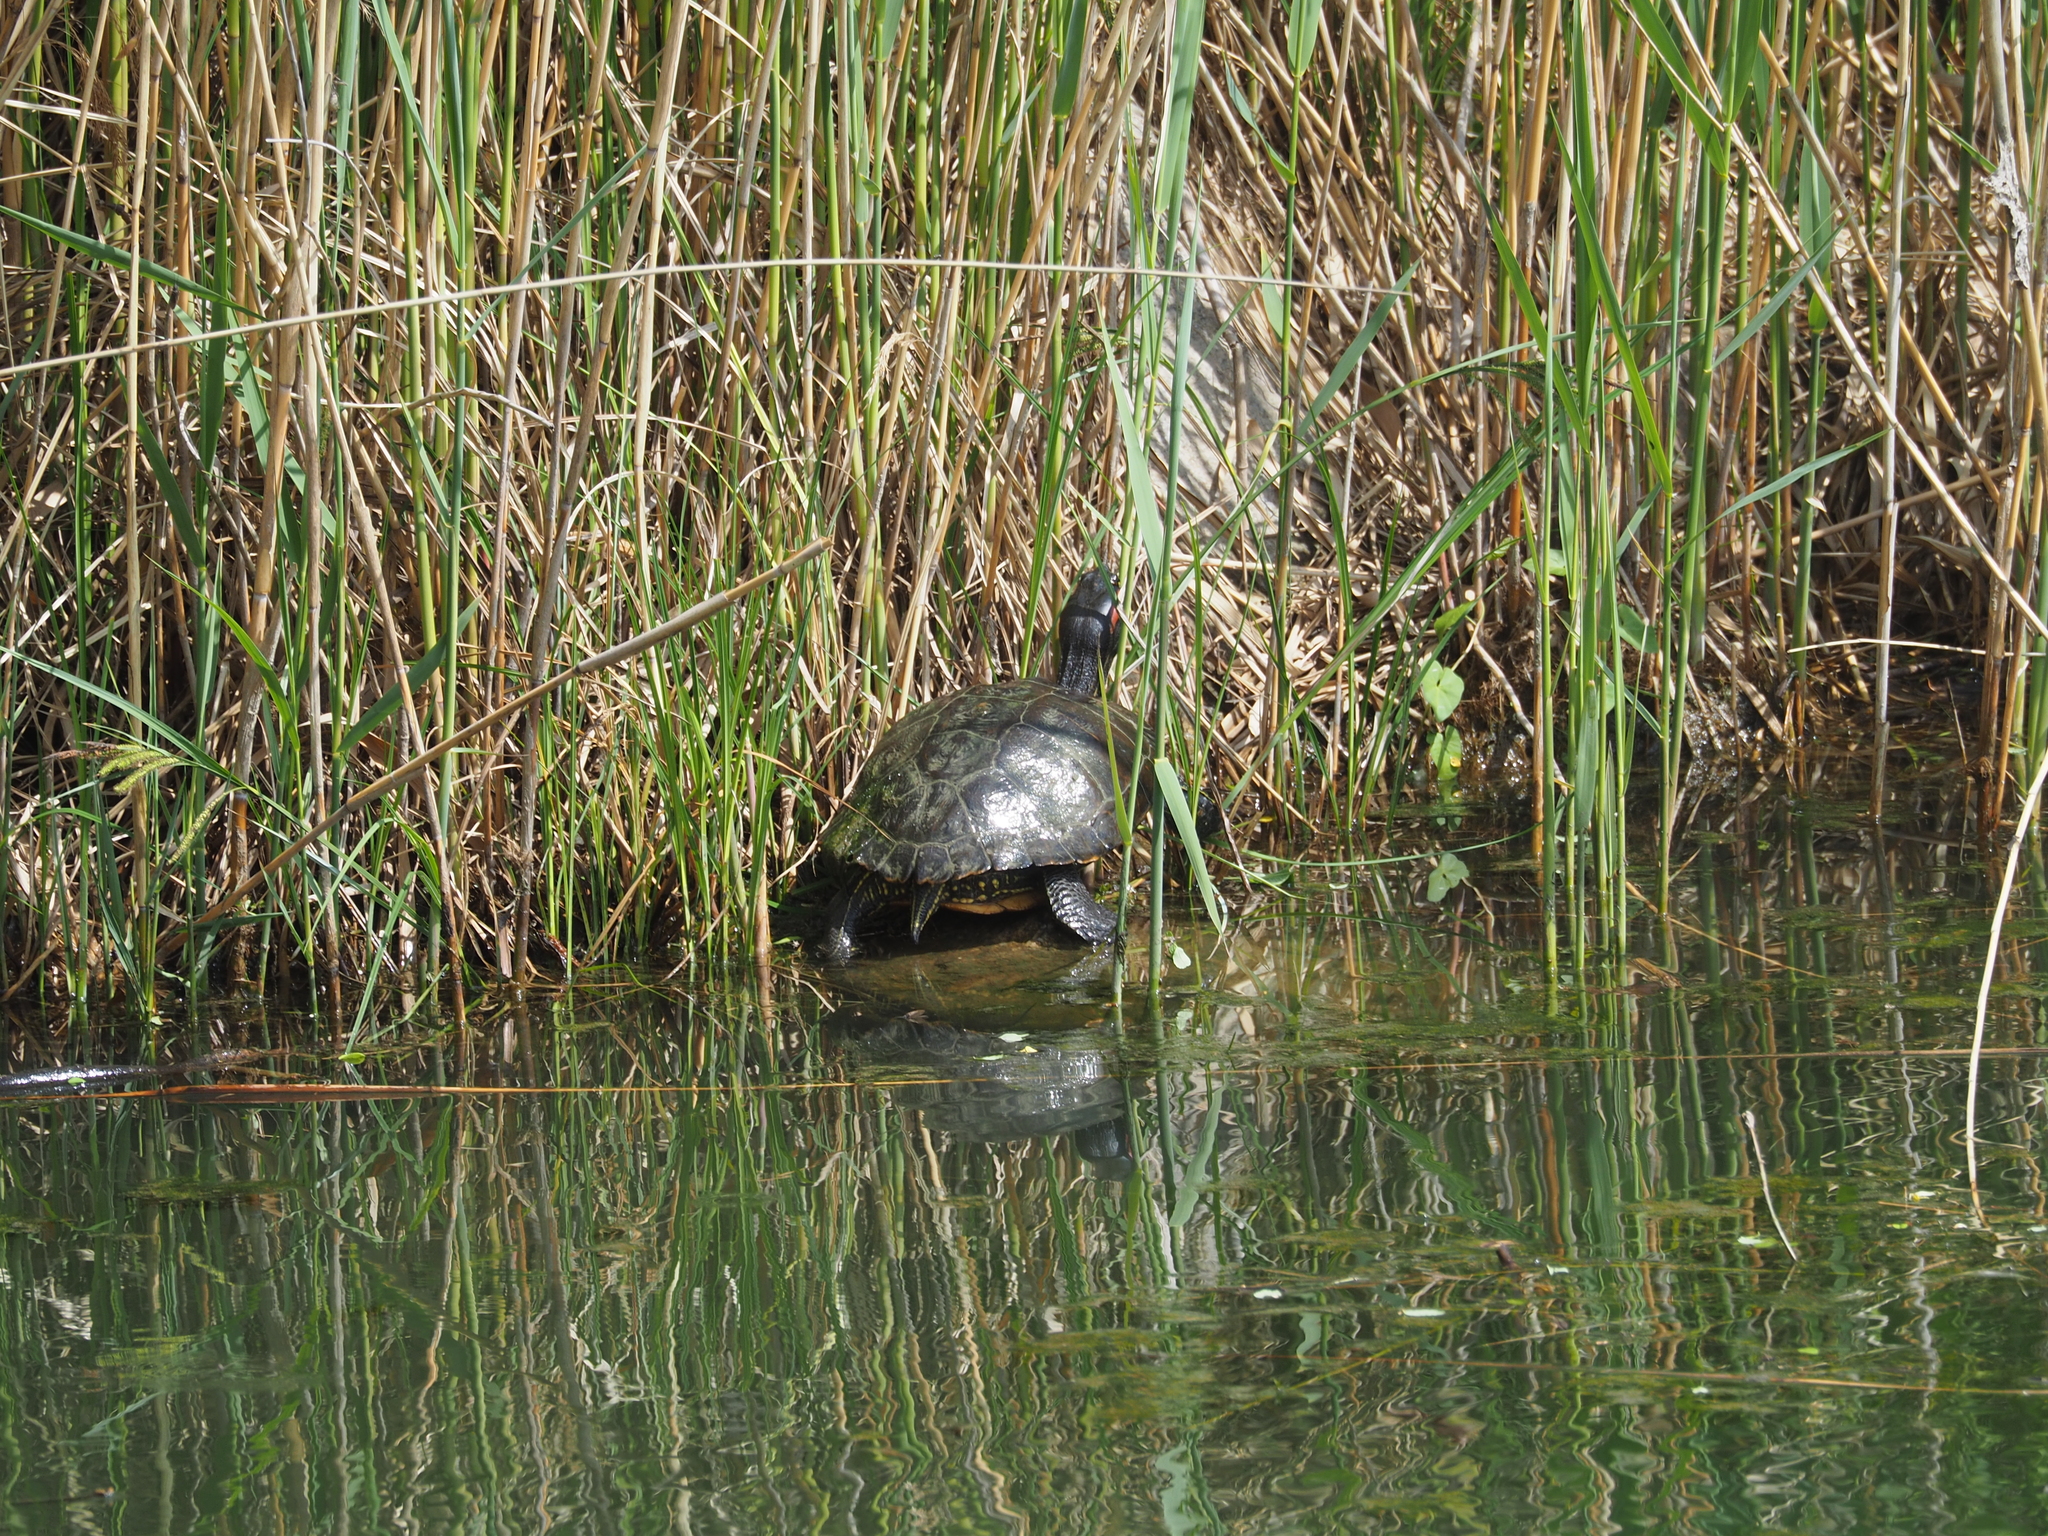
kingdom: Animalia
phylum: Chordata
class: Testudines
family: Emydidae
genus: Trachemys
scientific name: Trachemys scripta
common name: Slider
